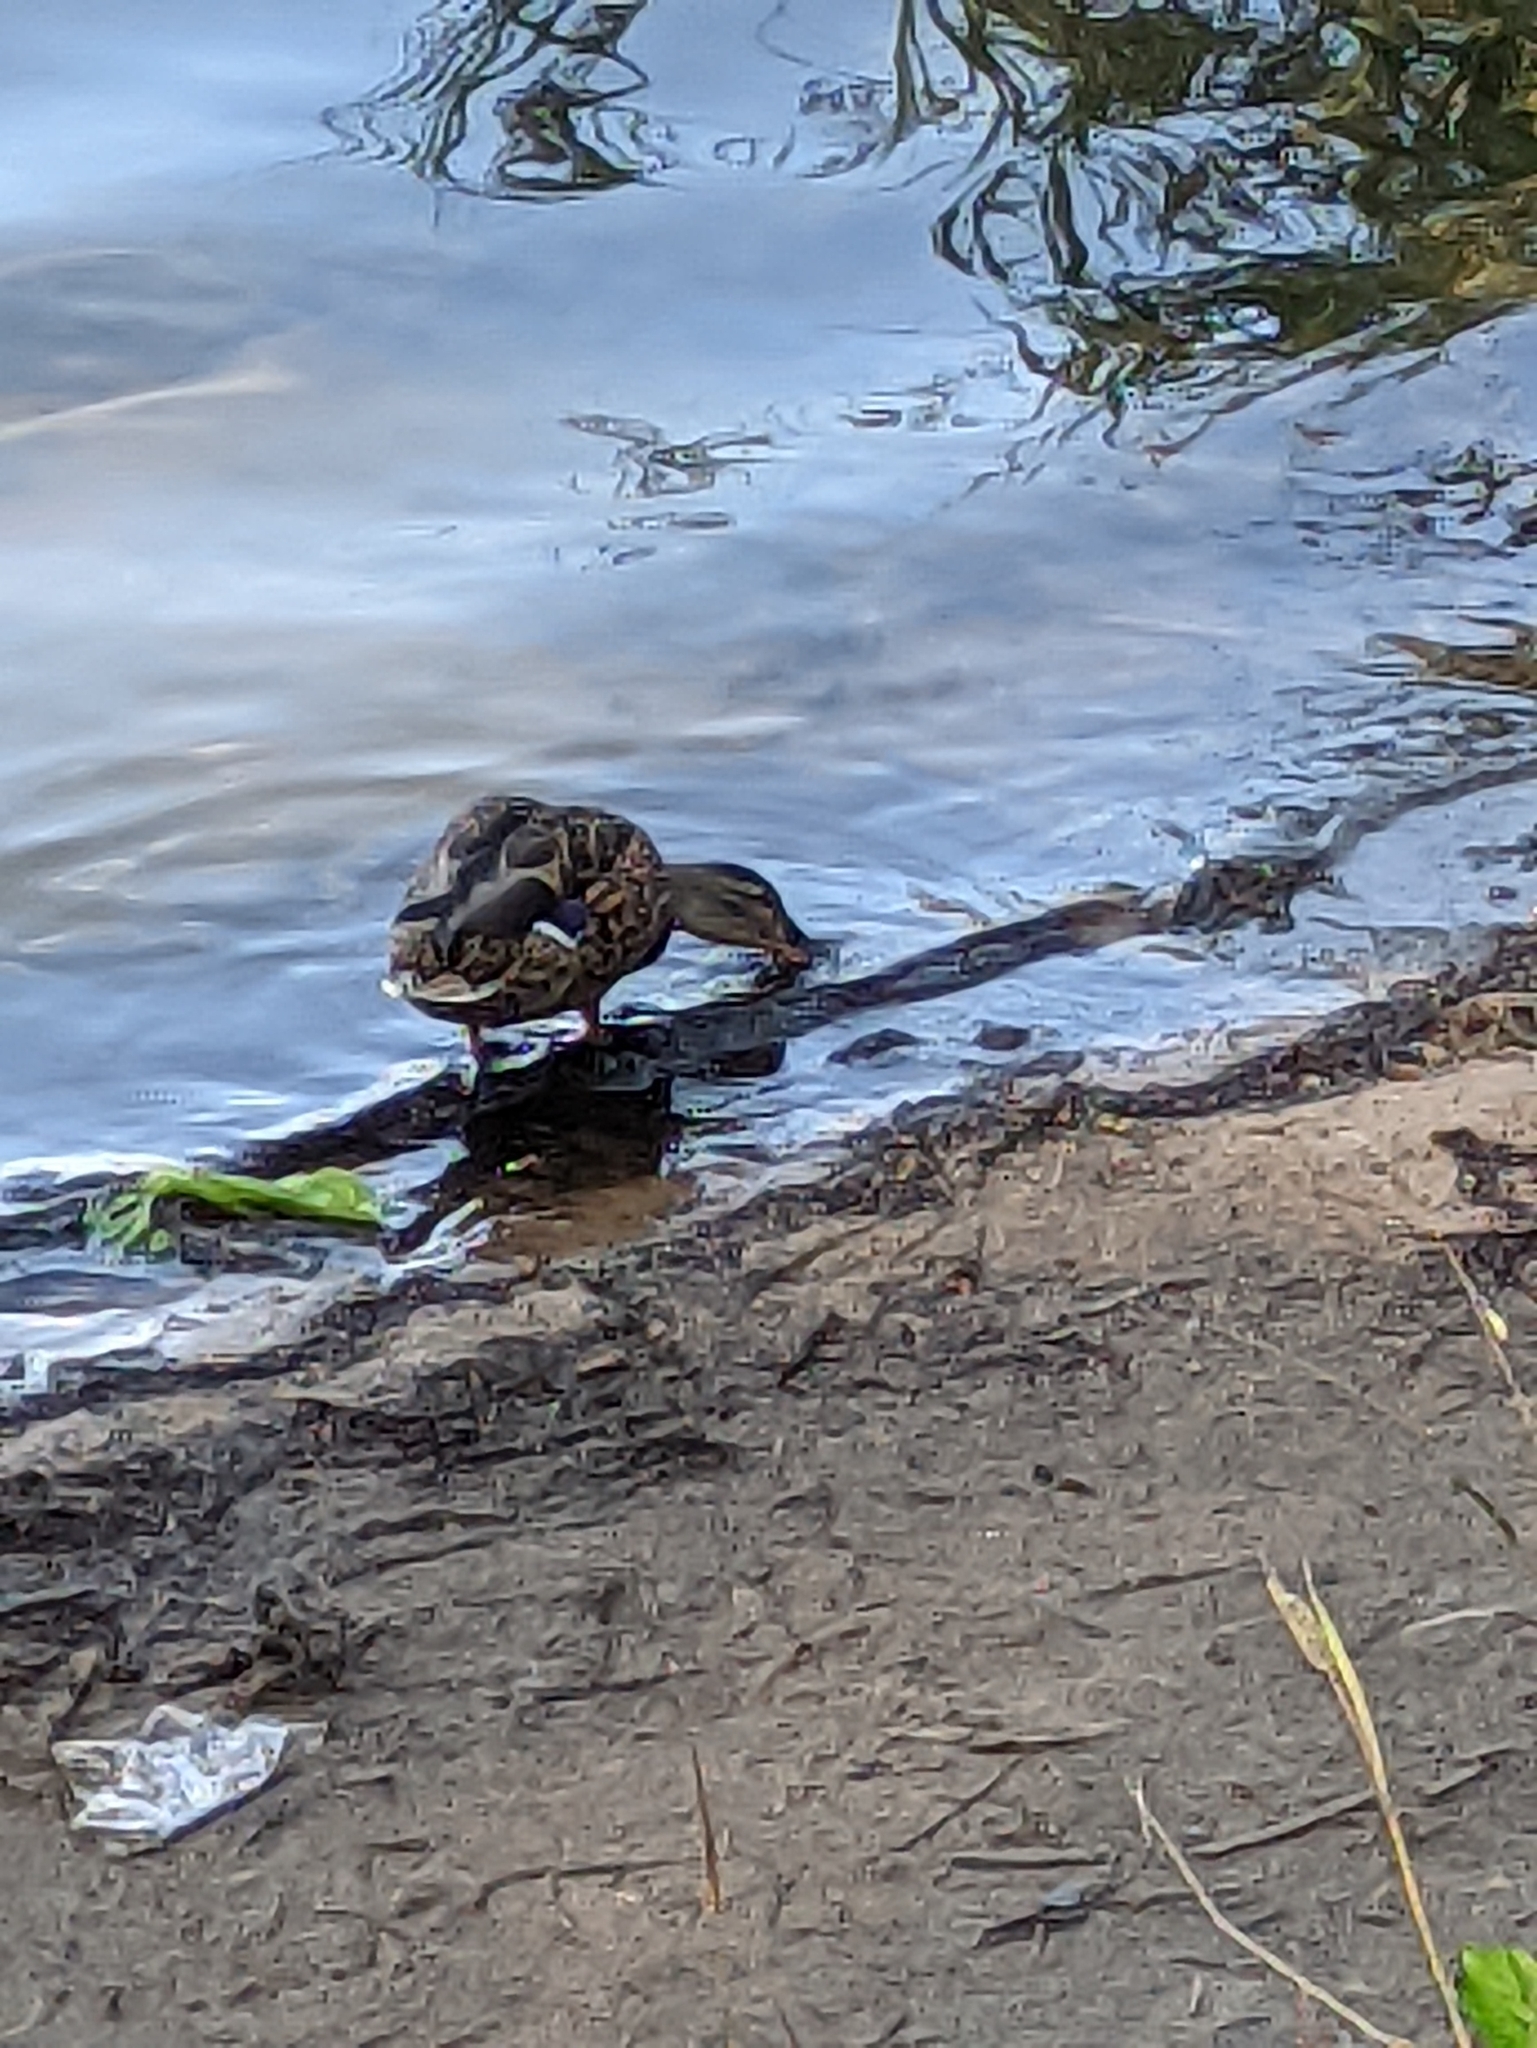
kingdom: Animalia
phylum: Chordata
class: Aves
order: Anseriformes
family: Anatidae
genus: Anas
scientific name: Anas platyrhynchos
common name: Mallard
